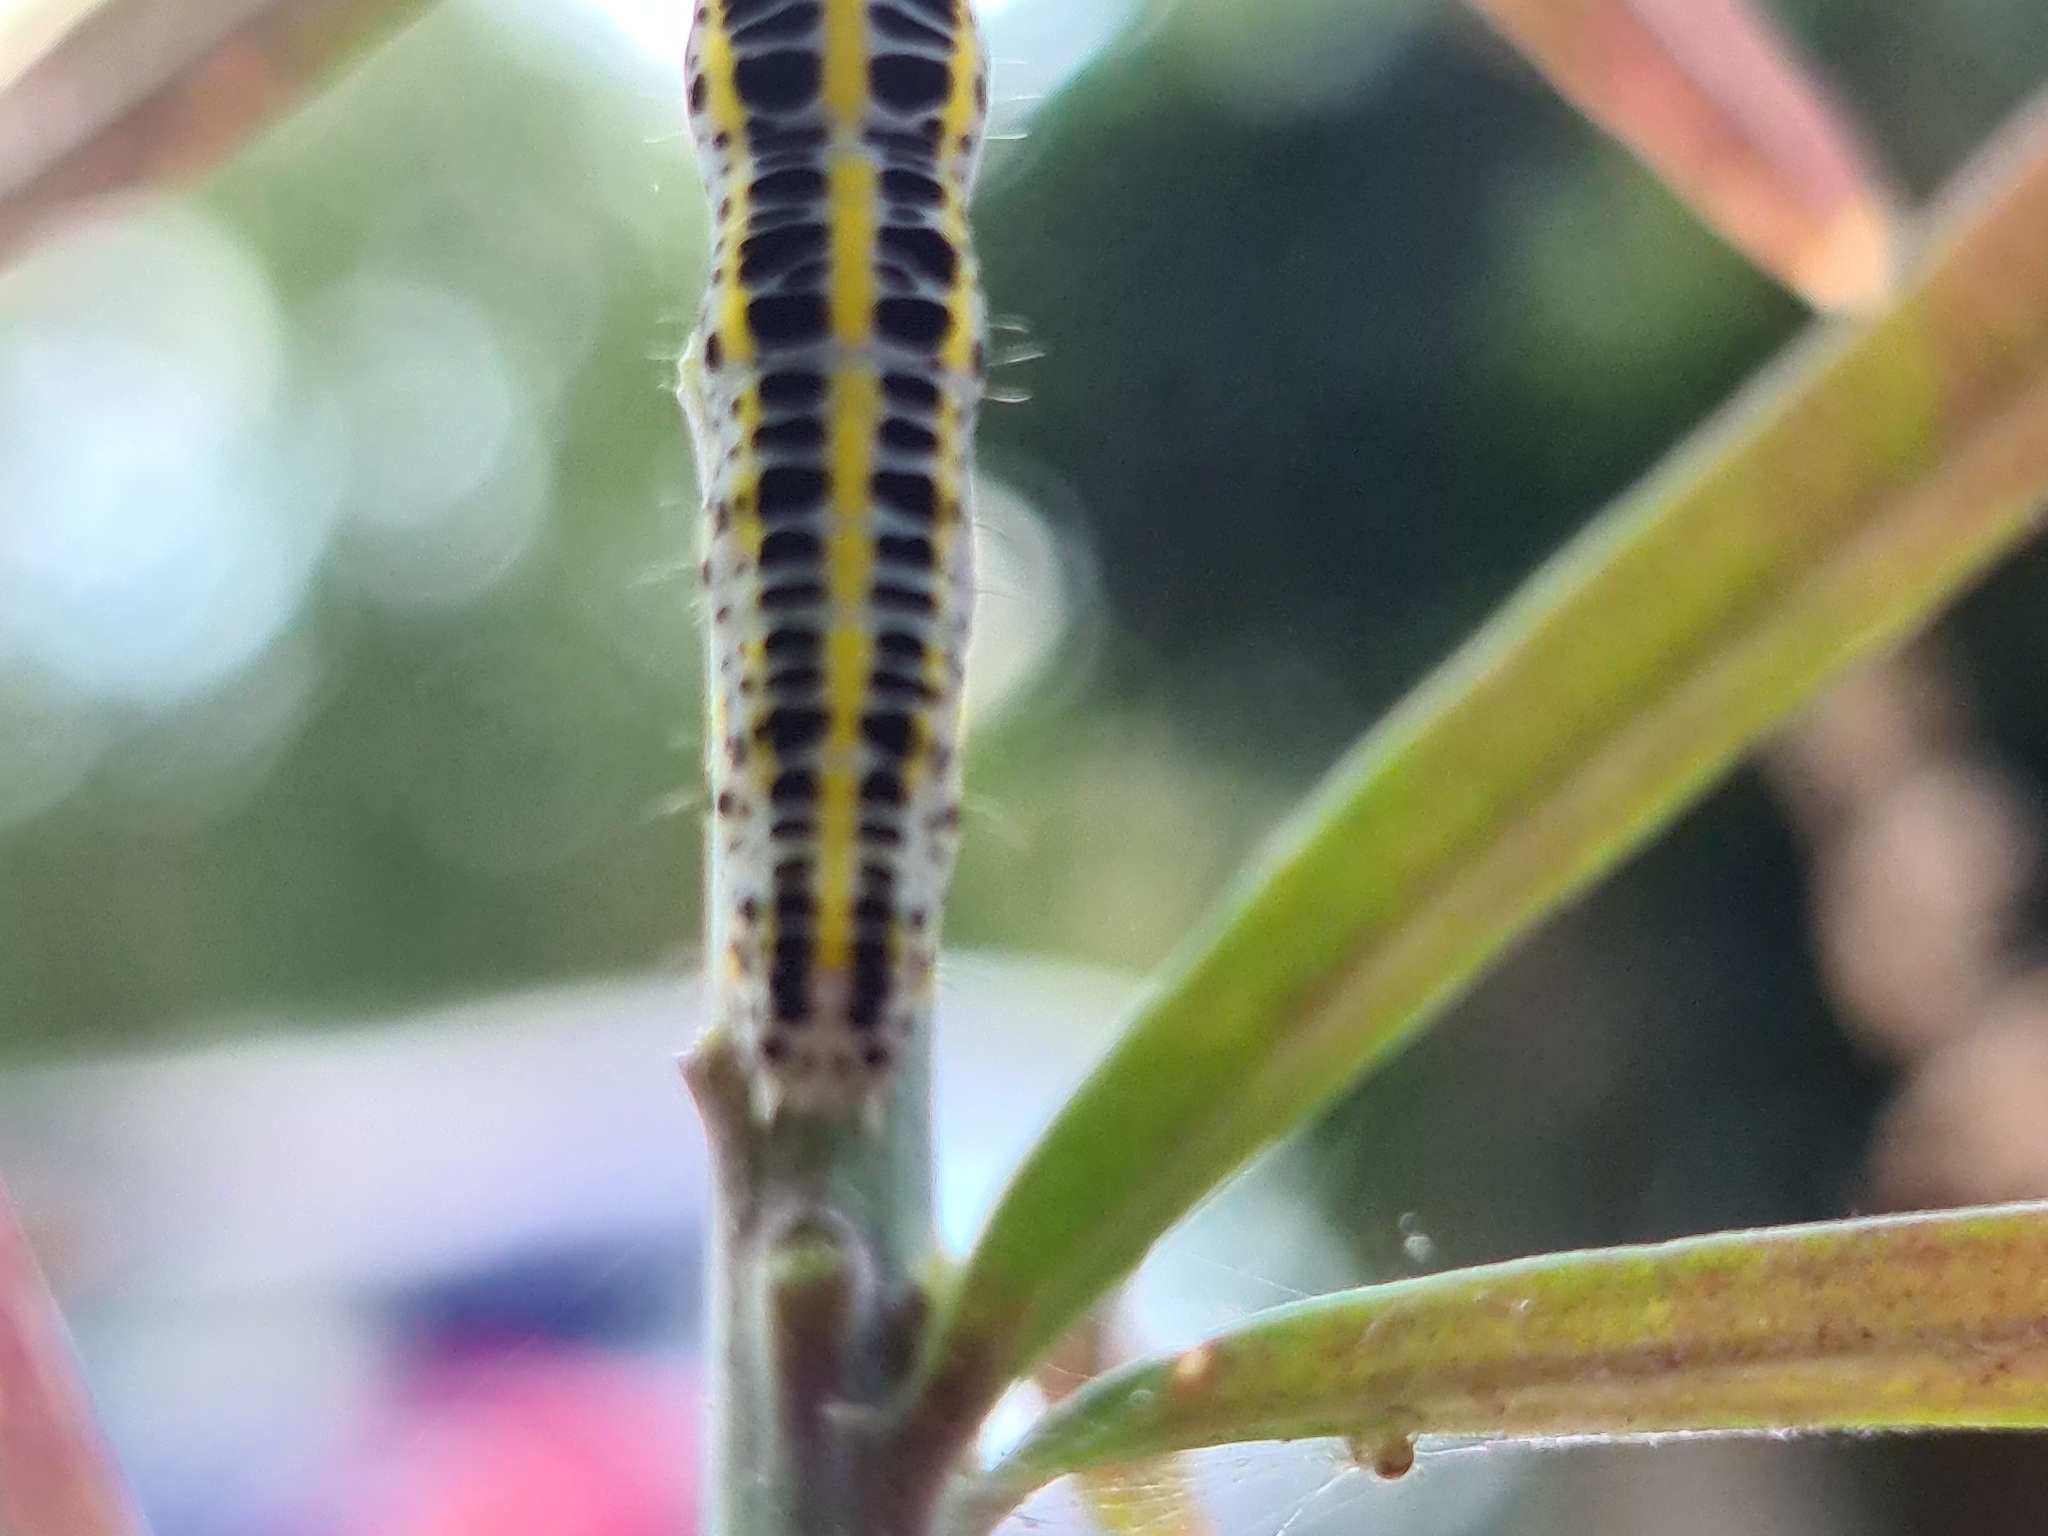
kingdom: Animalia
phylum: Arthropoda
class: Insecta
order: Lepidoptera
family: Noctuidae
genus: Calophasia
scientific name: Calophasia lunula
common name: Toadflax brocade
